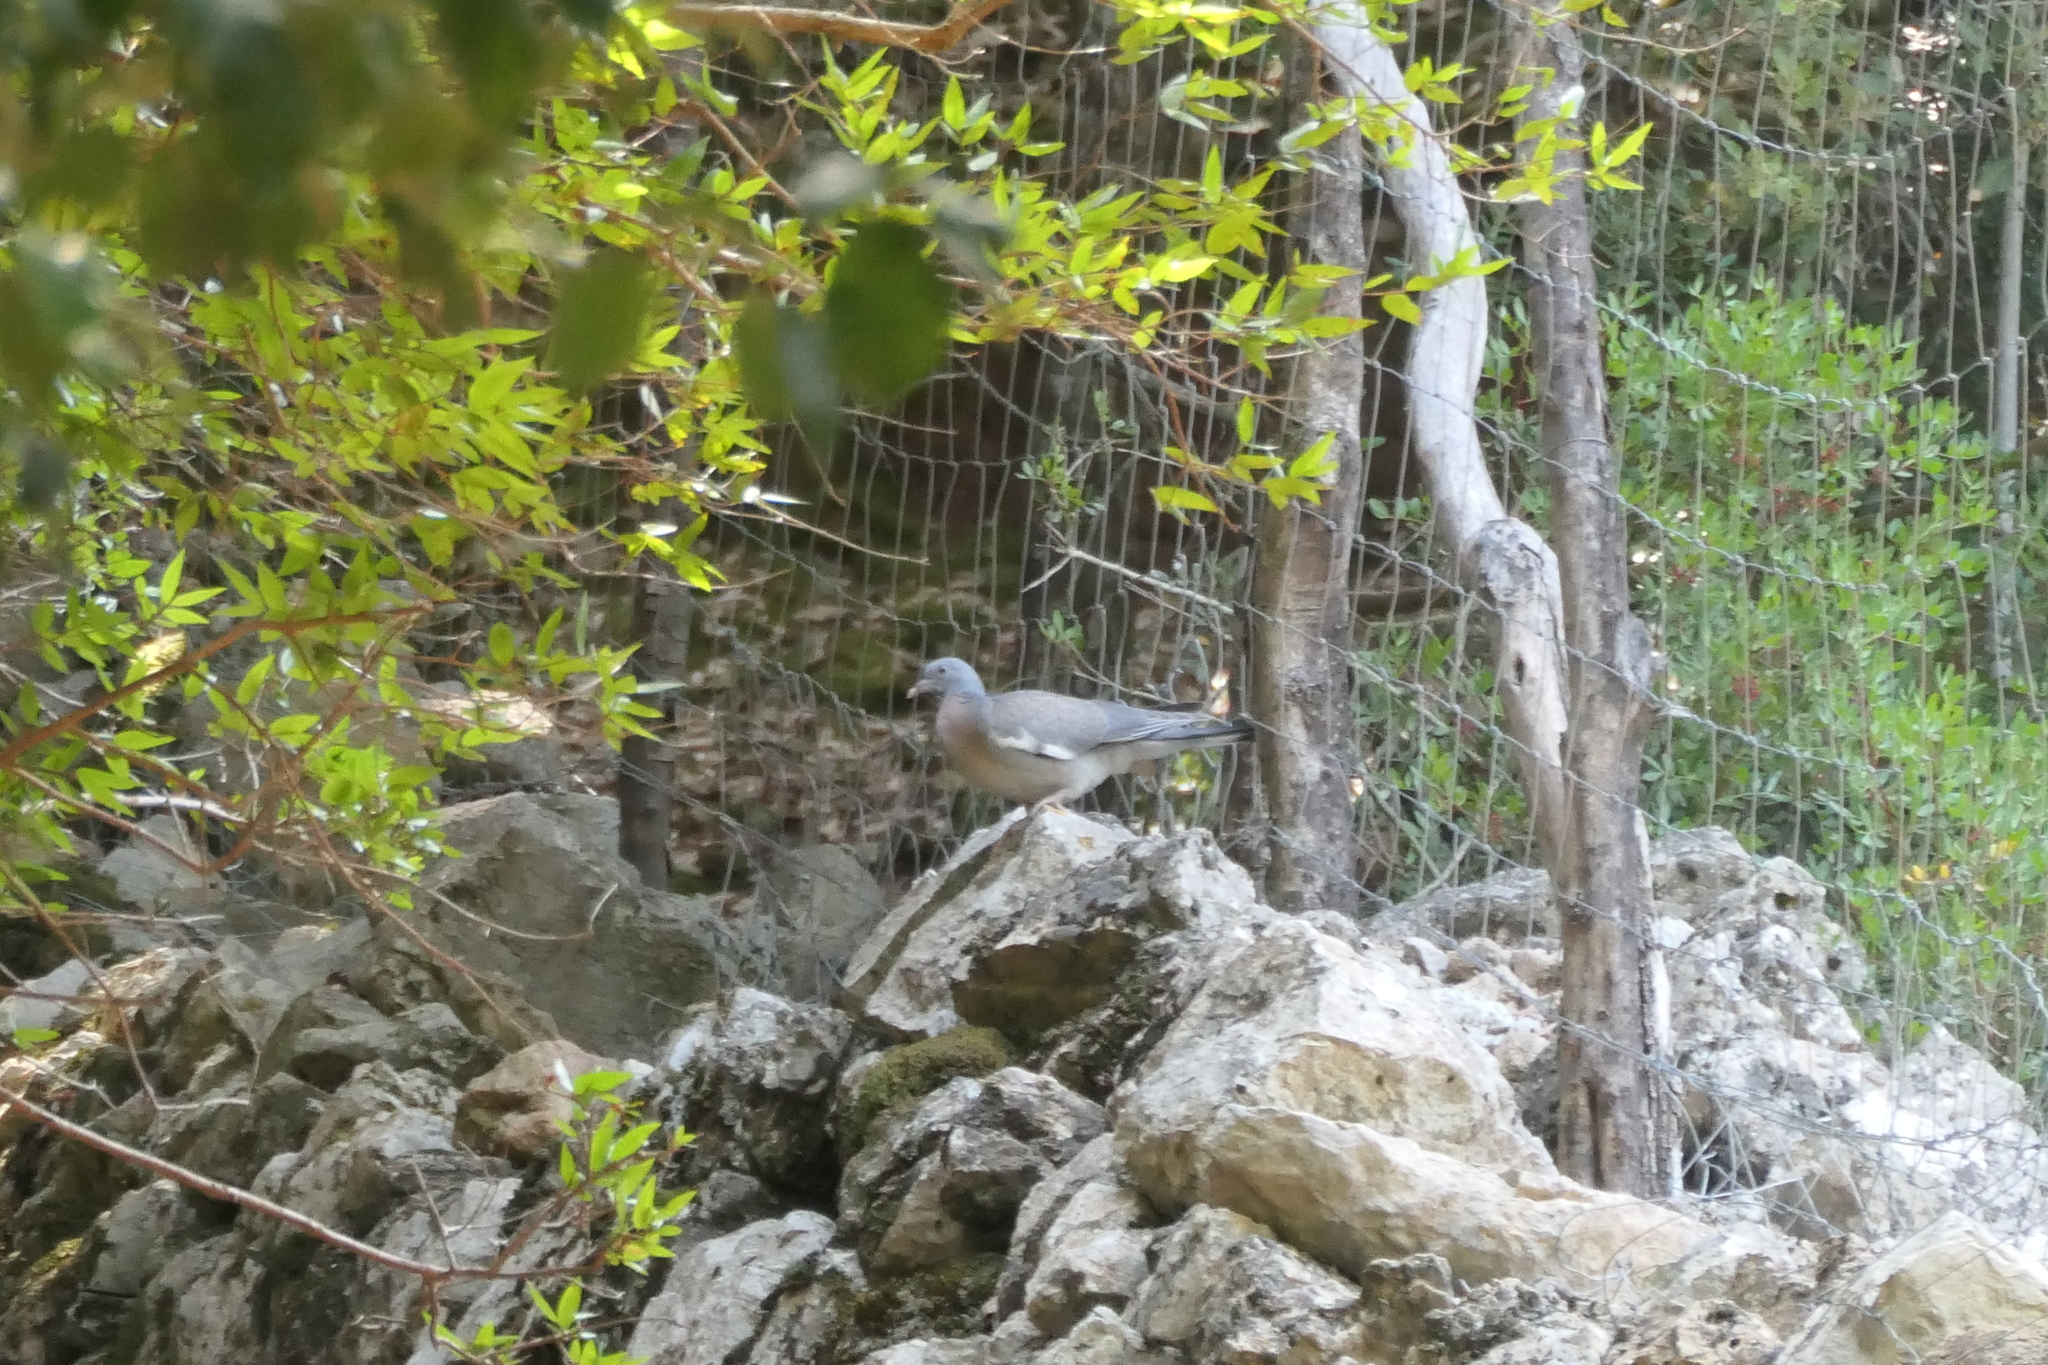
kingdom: Animalia
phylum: Chordata
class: Aves
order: Columbiformes
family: Columbidae
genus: Columba
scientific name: Columba palumbus
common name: Common wood pigeon
